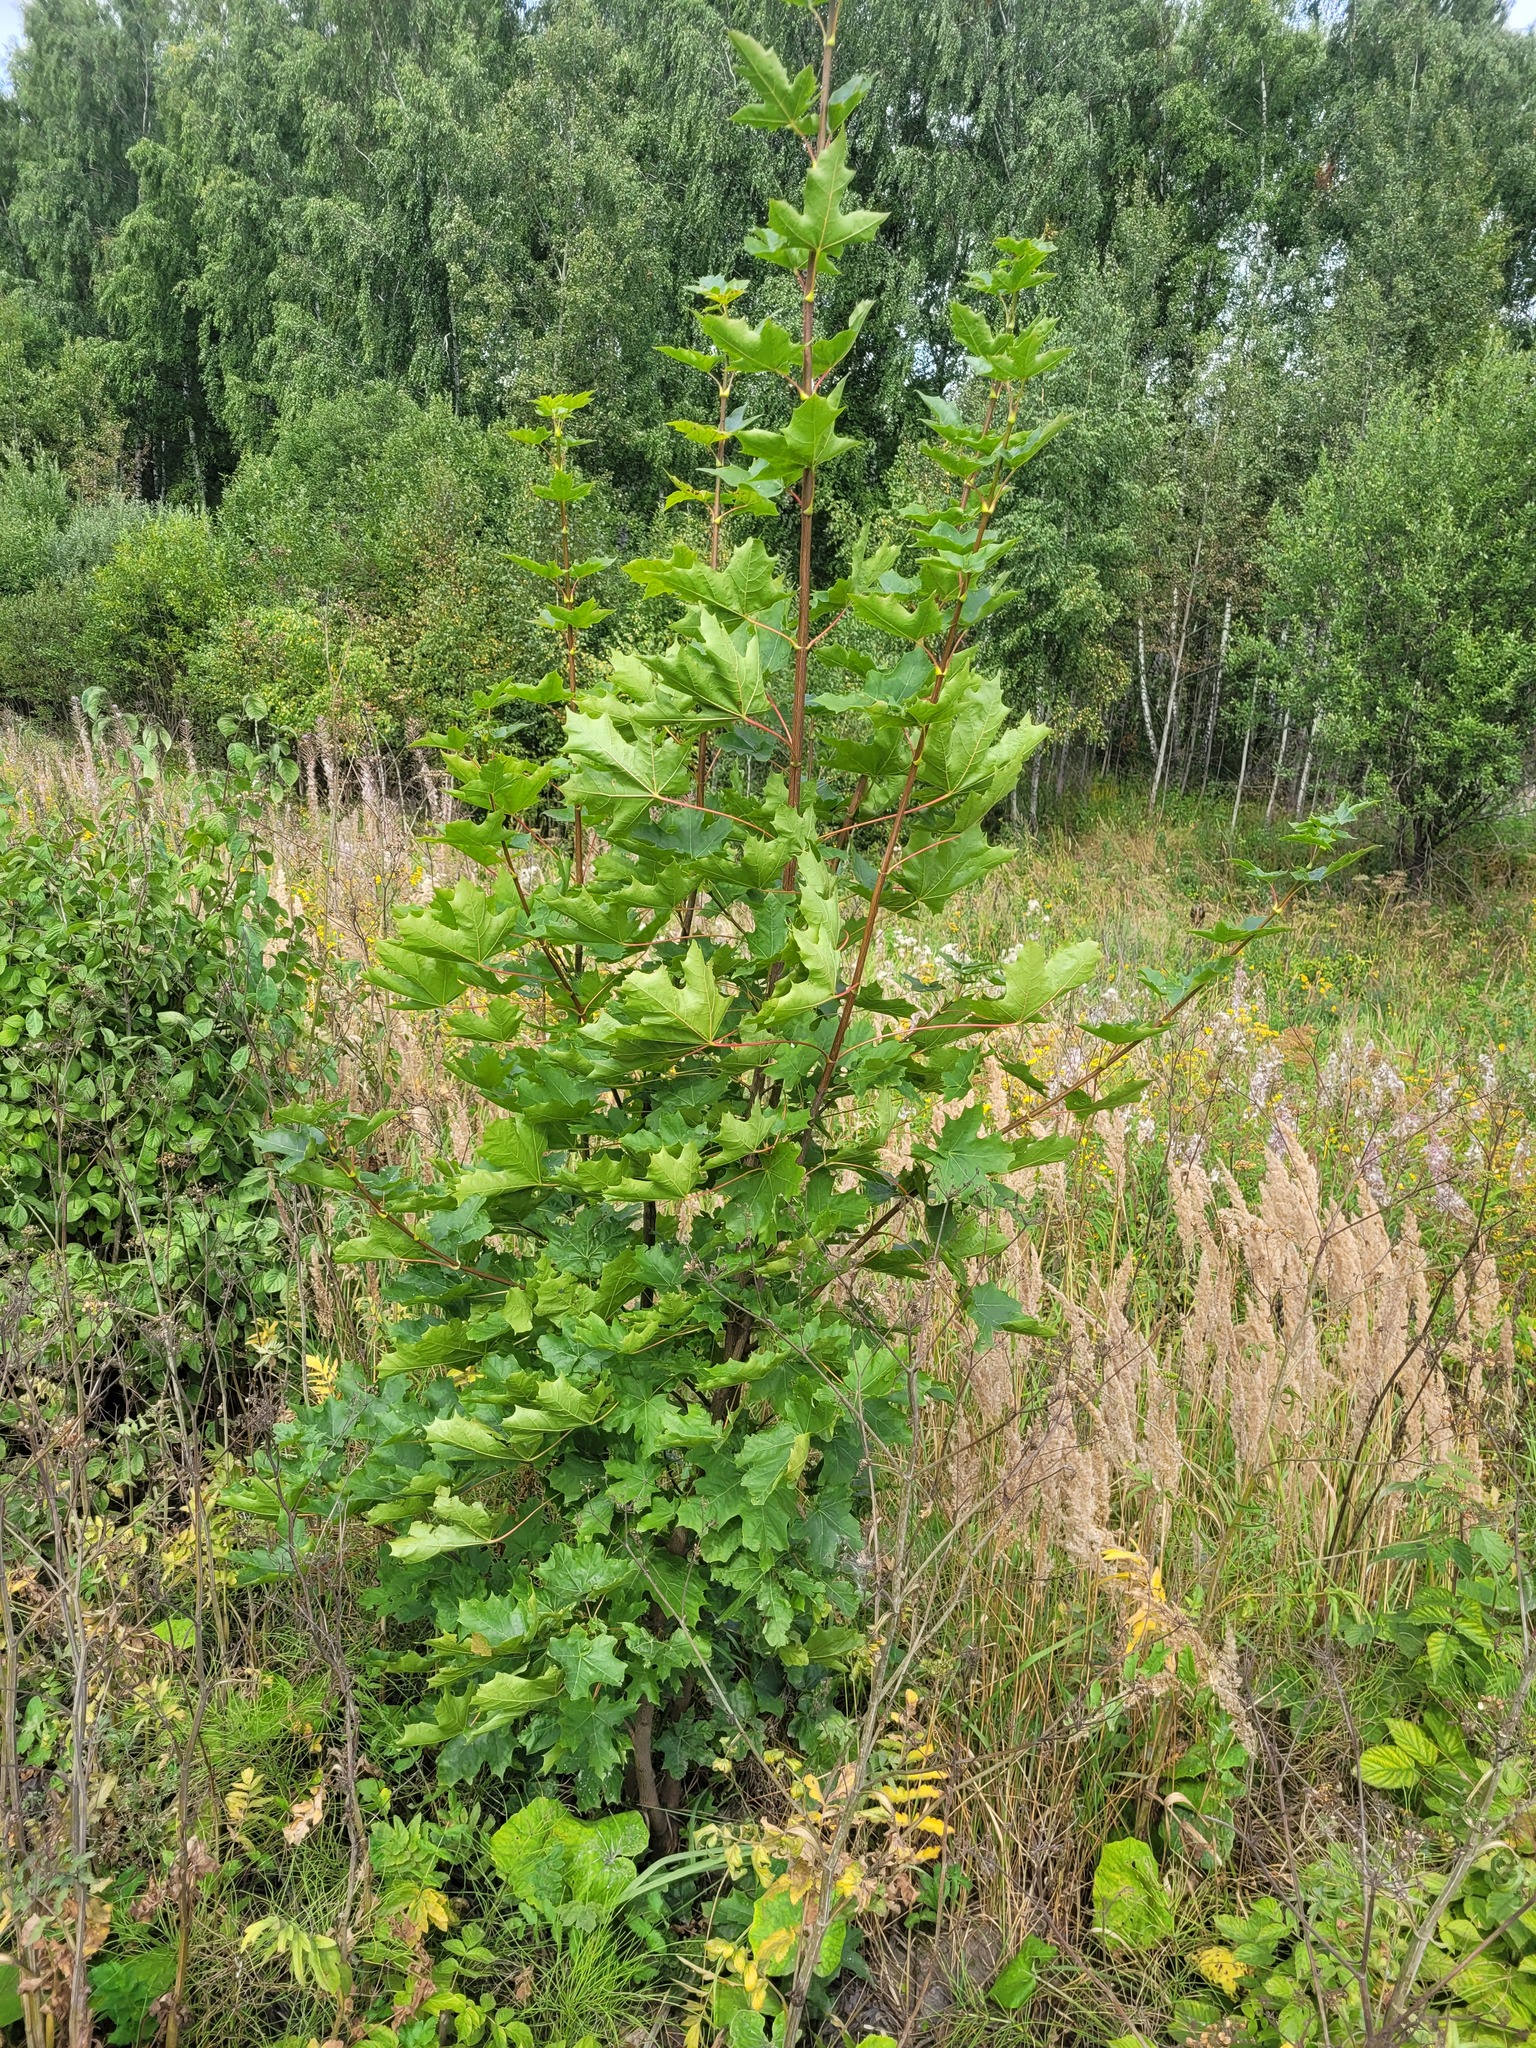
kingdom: Plantae
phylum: Tracheophyta
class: Magnoliopsida
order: Sapindales
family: Sapindaceae
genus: Acer
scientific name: Acer platanoides
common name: Norway maple
